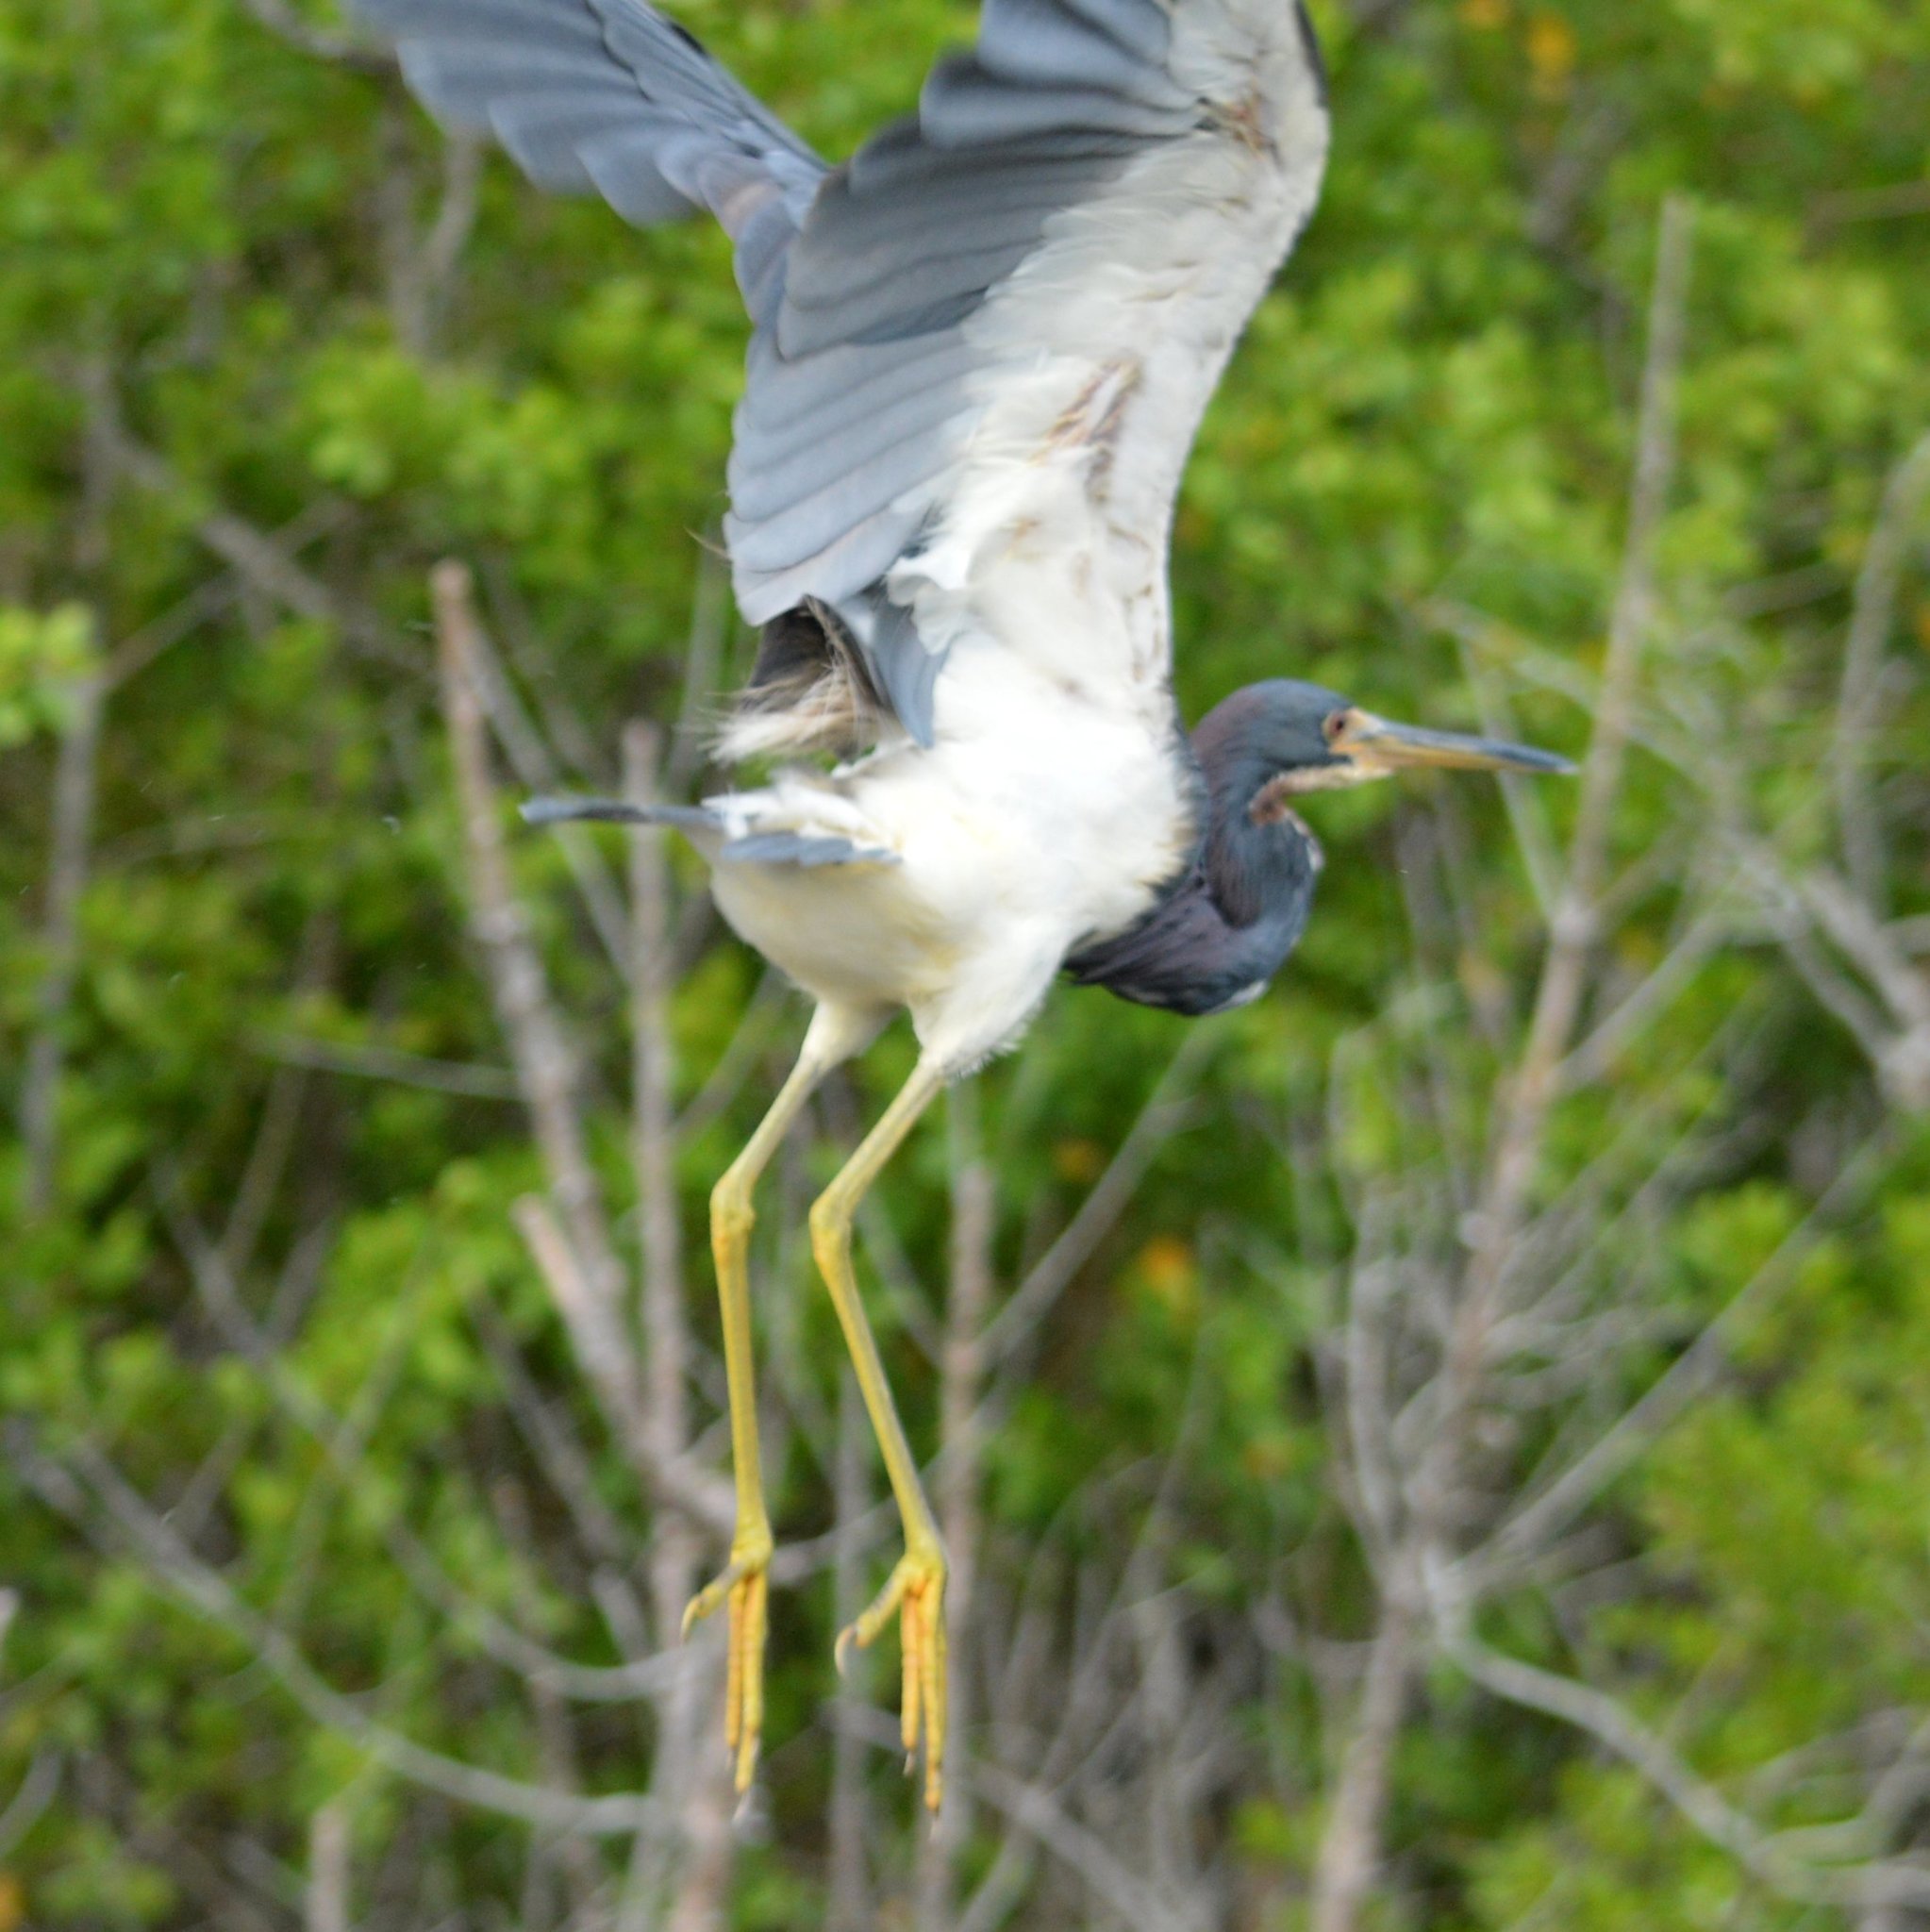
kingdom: Animalia
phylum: Chordata
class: Aves
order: Pelecaniformes
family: Ardeidae
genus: Egretta
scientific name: Egretta tricolor
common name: Tricolored heron
